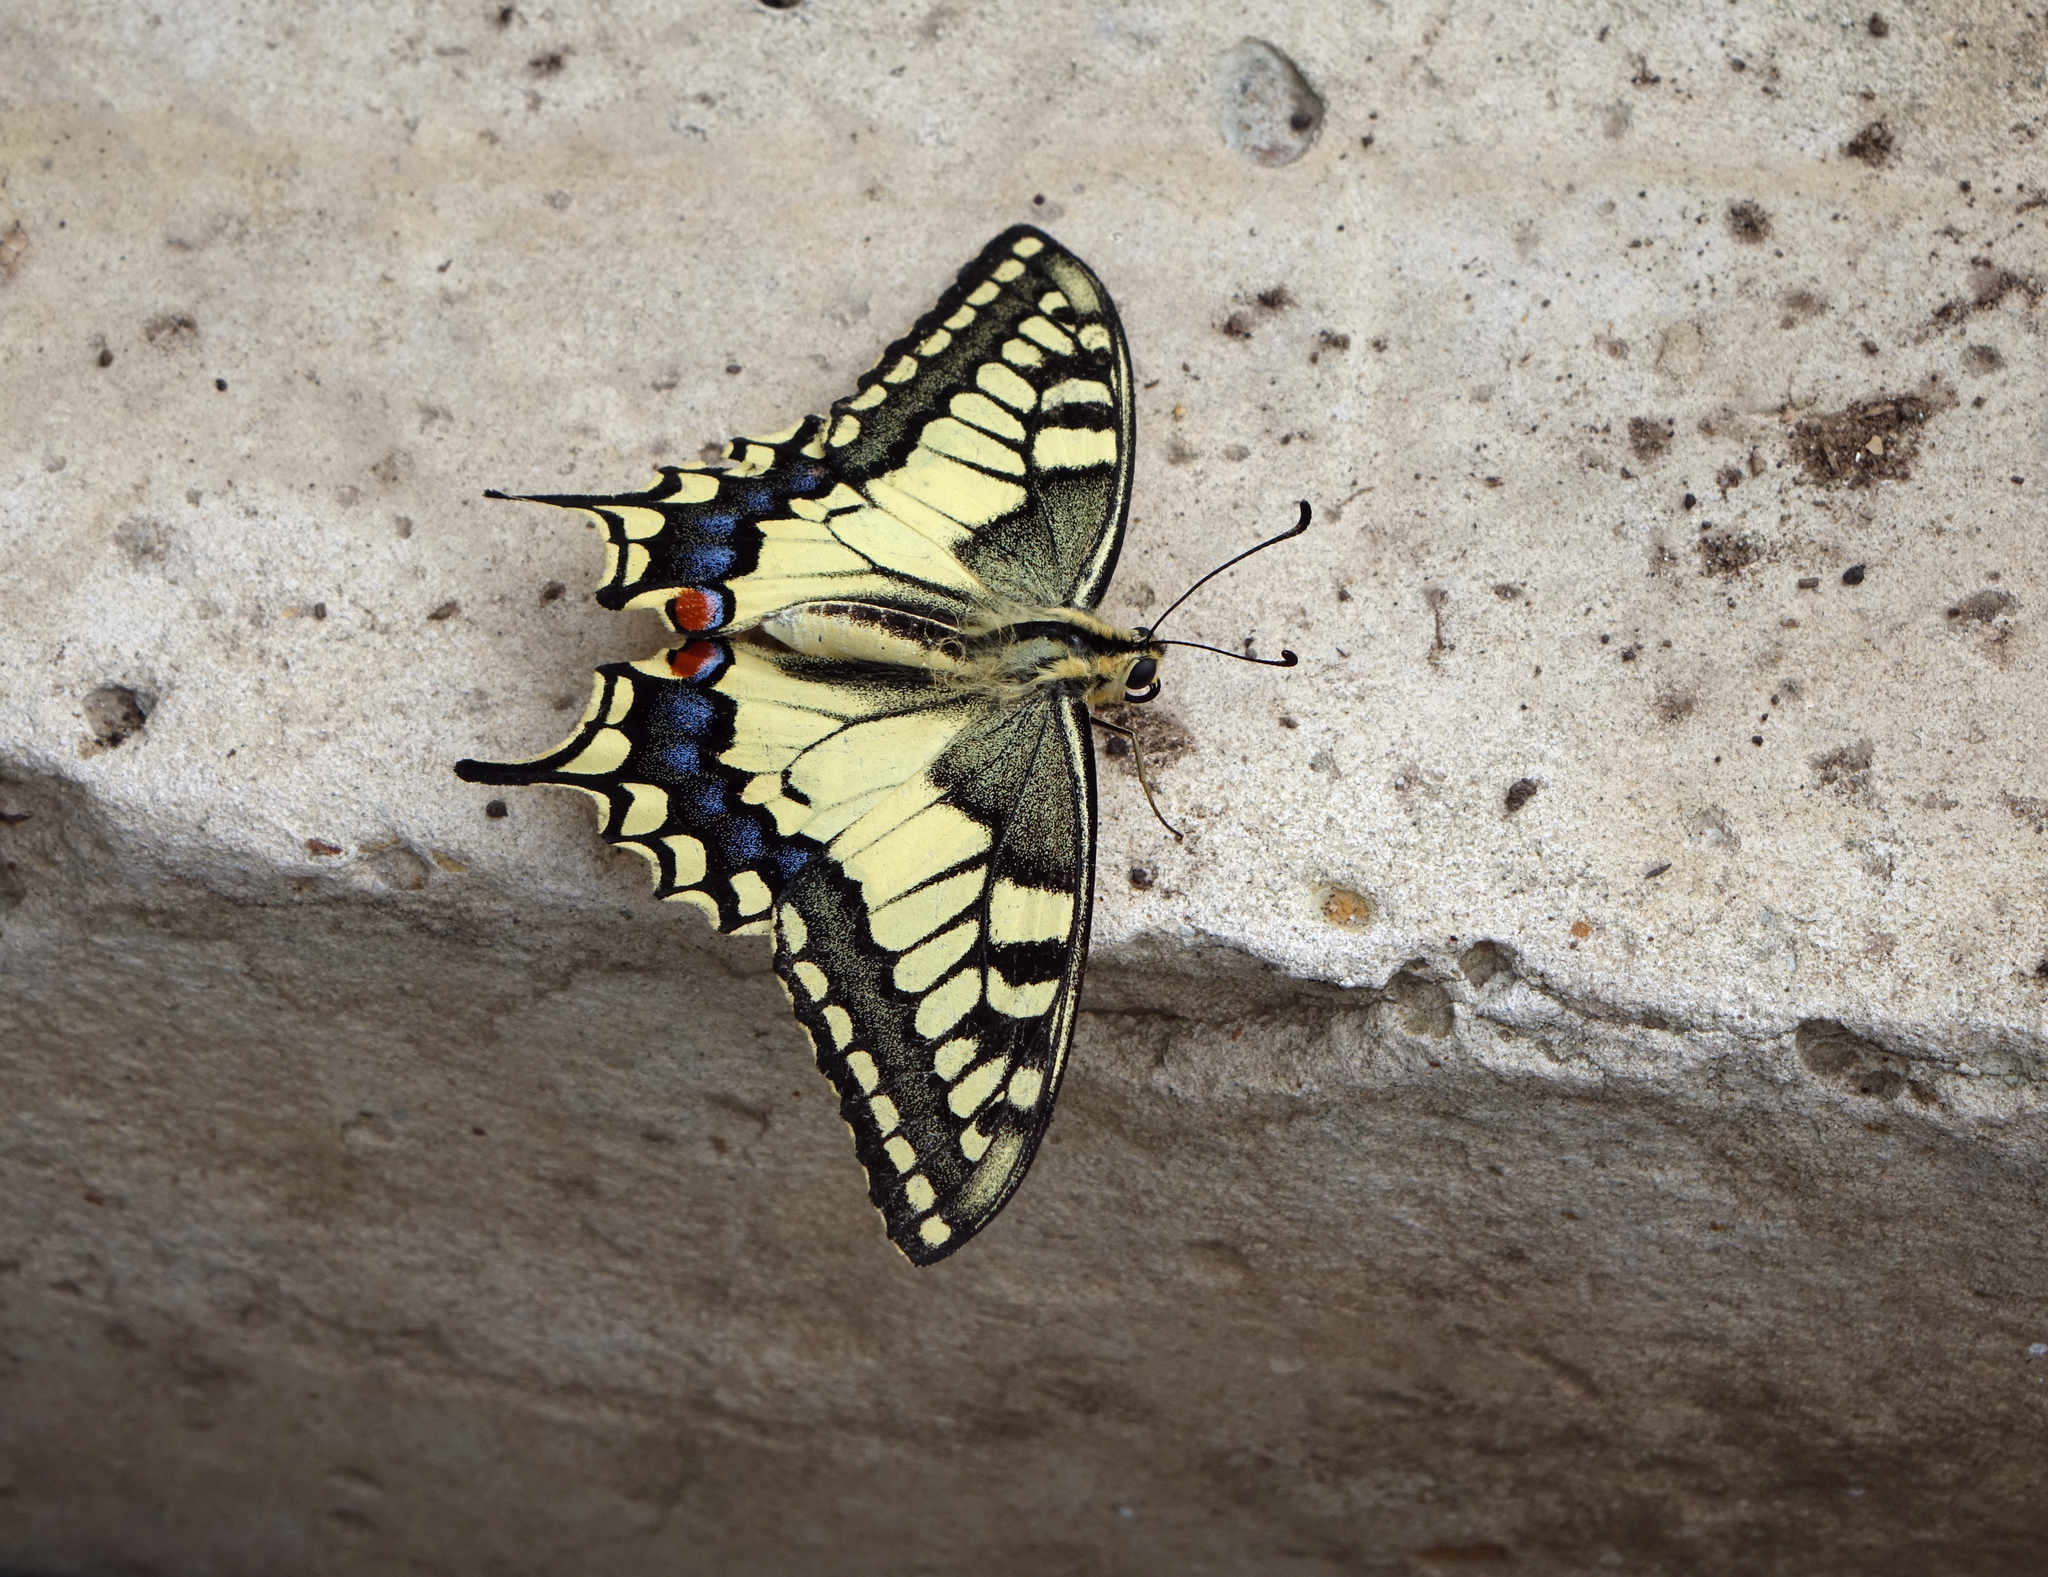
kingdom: Animalia
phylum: Arthropoda
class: Insecta
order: Lepidoptera
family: Papilionidae
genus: Papilio
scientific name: Papilio machaon
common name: Swallowtail
